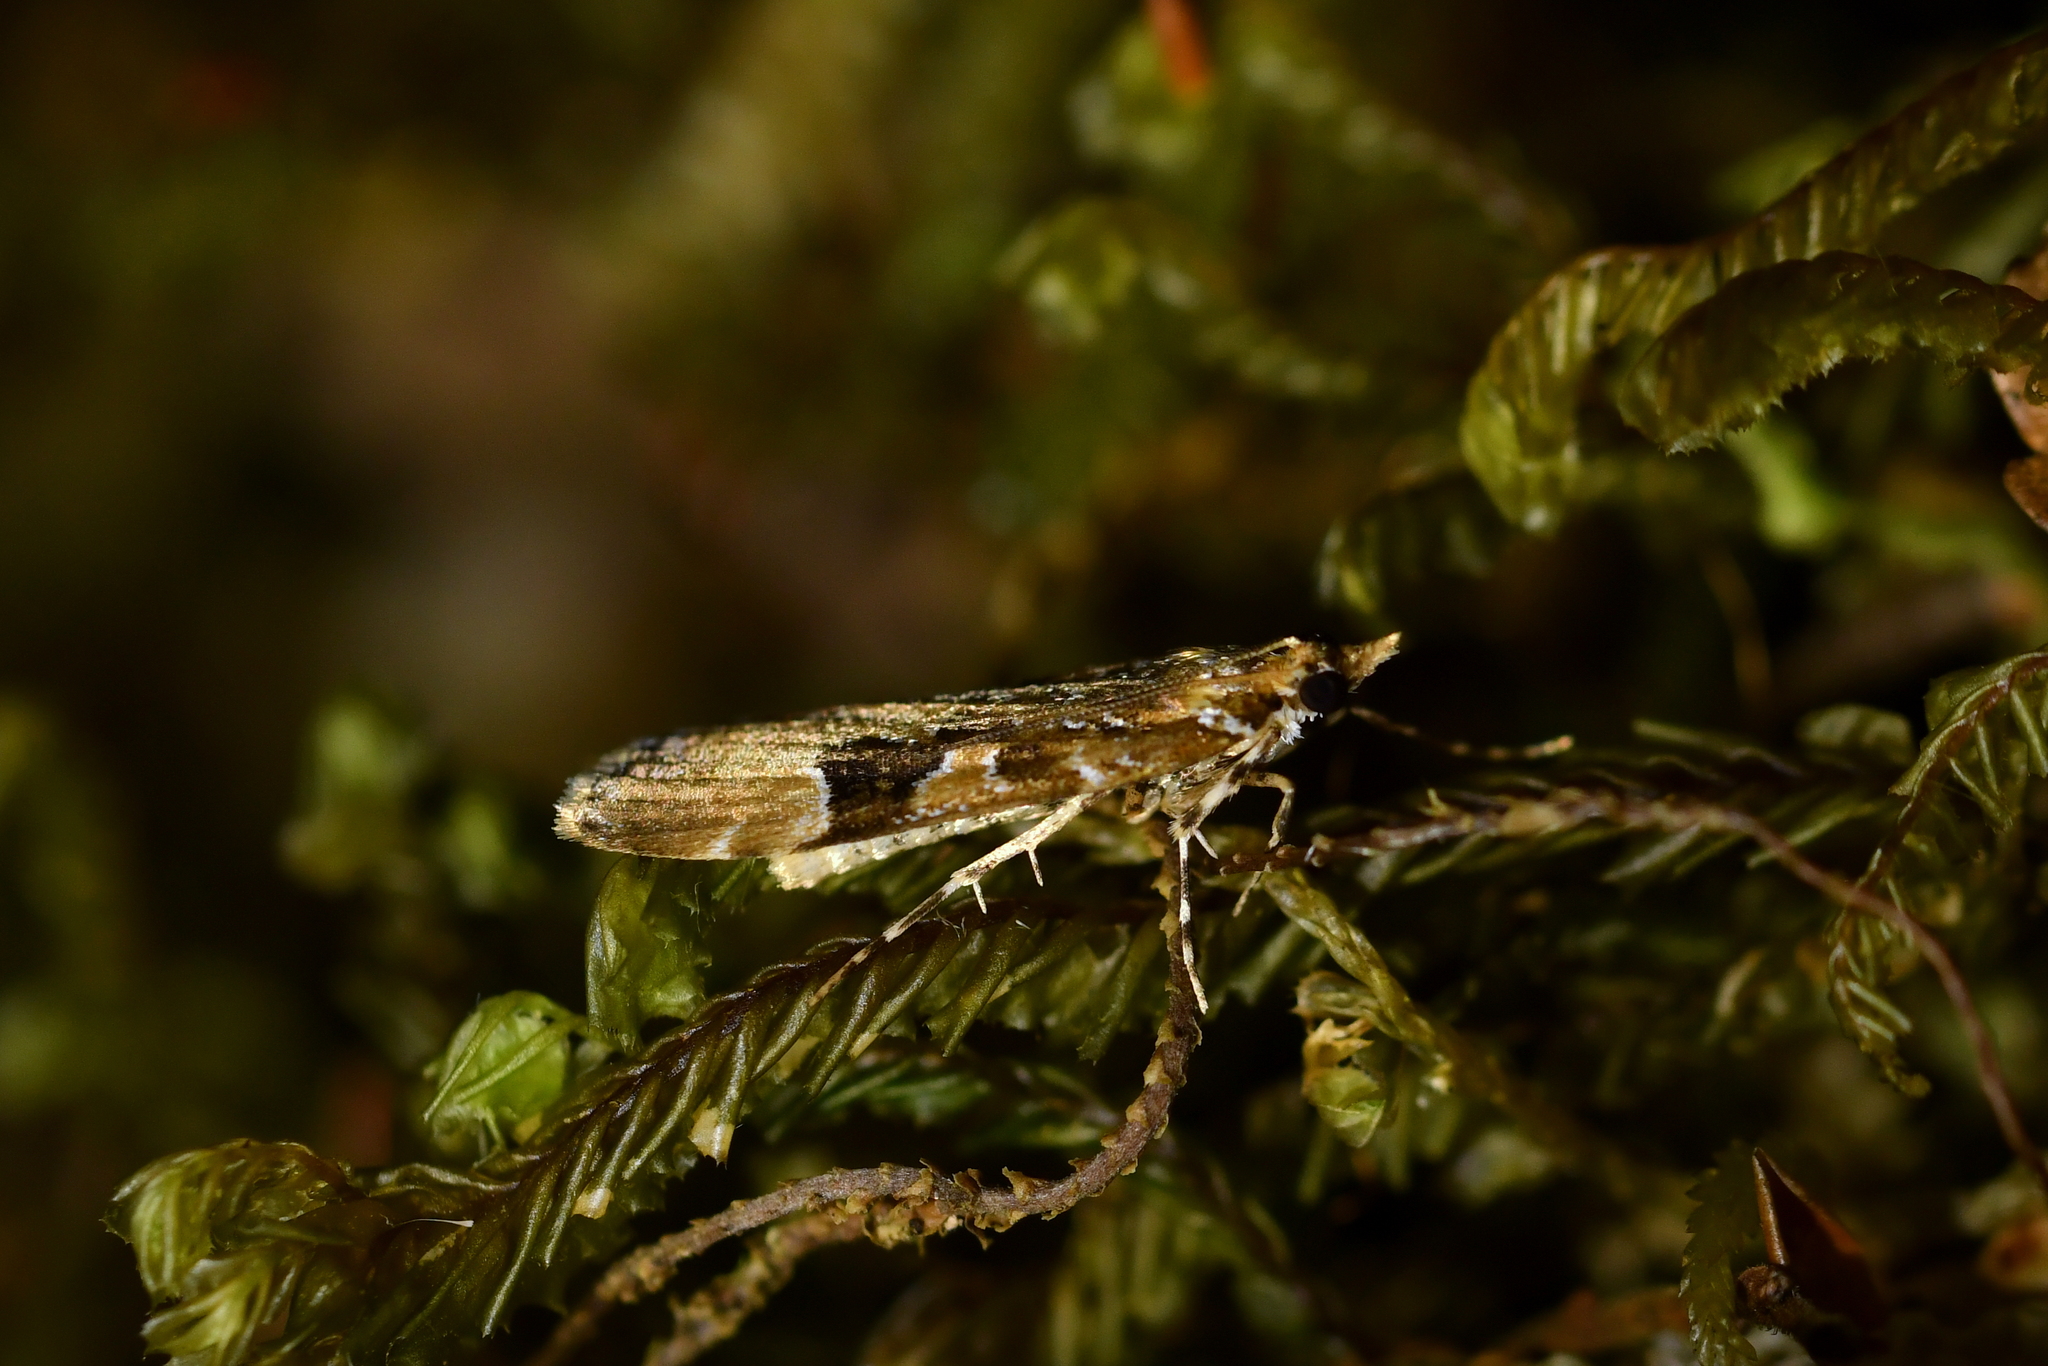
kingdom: Animalia
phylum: Arthropoda
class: Insecta
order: Lepidoptera
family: Crambidae
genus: Scoparia
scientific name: Scoparia ustimacula
